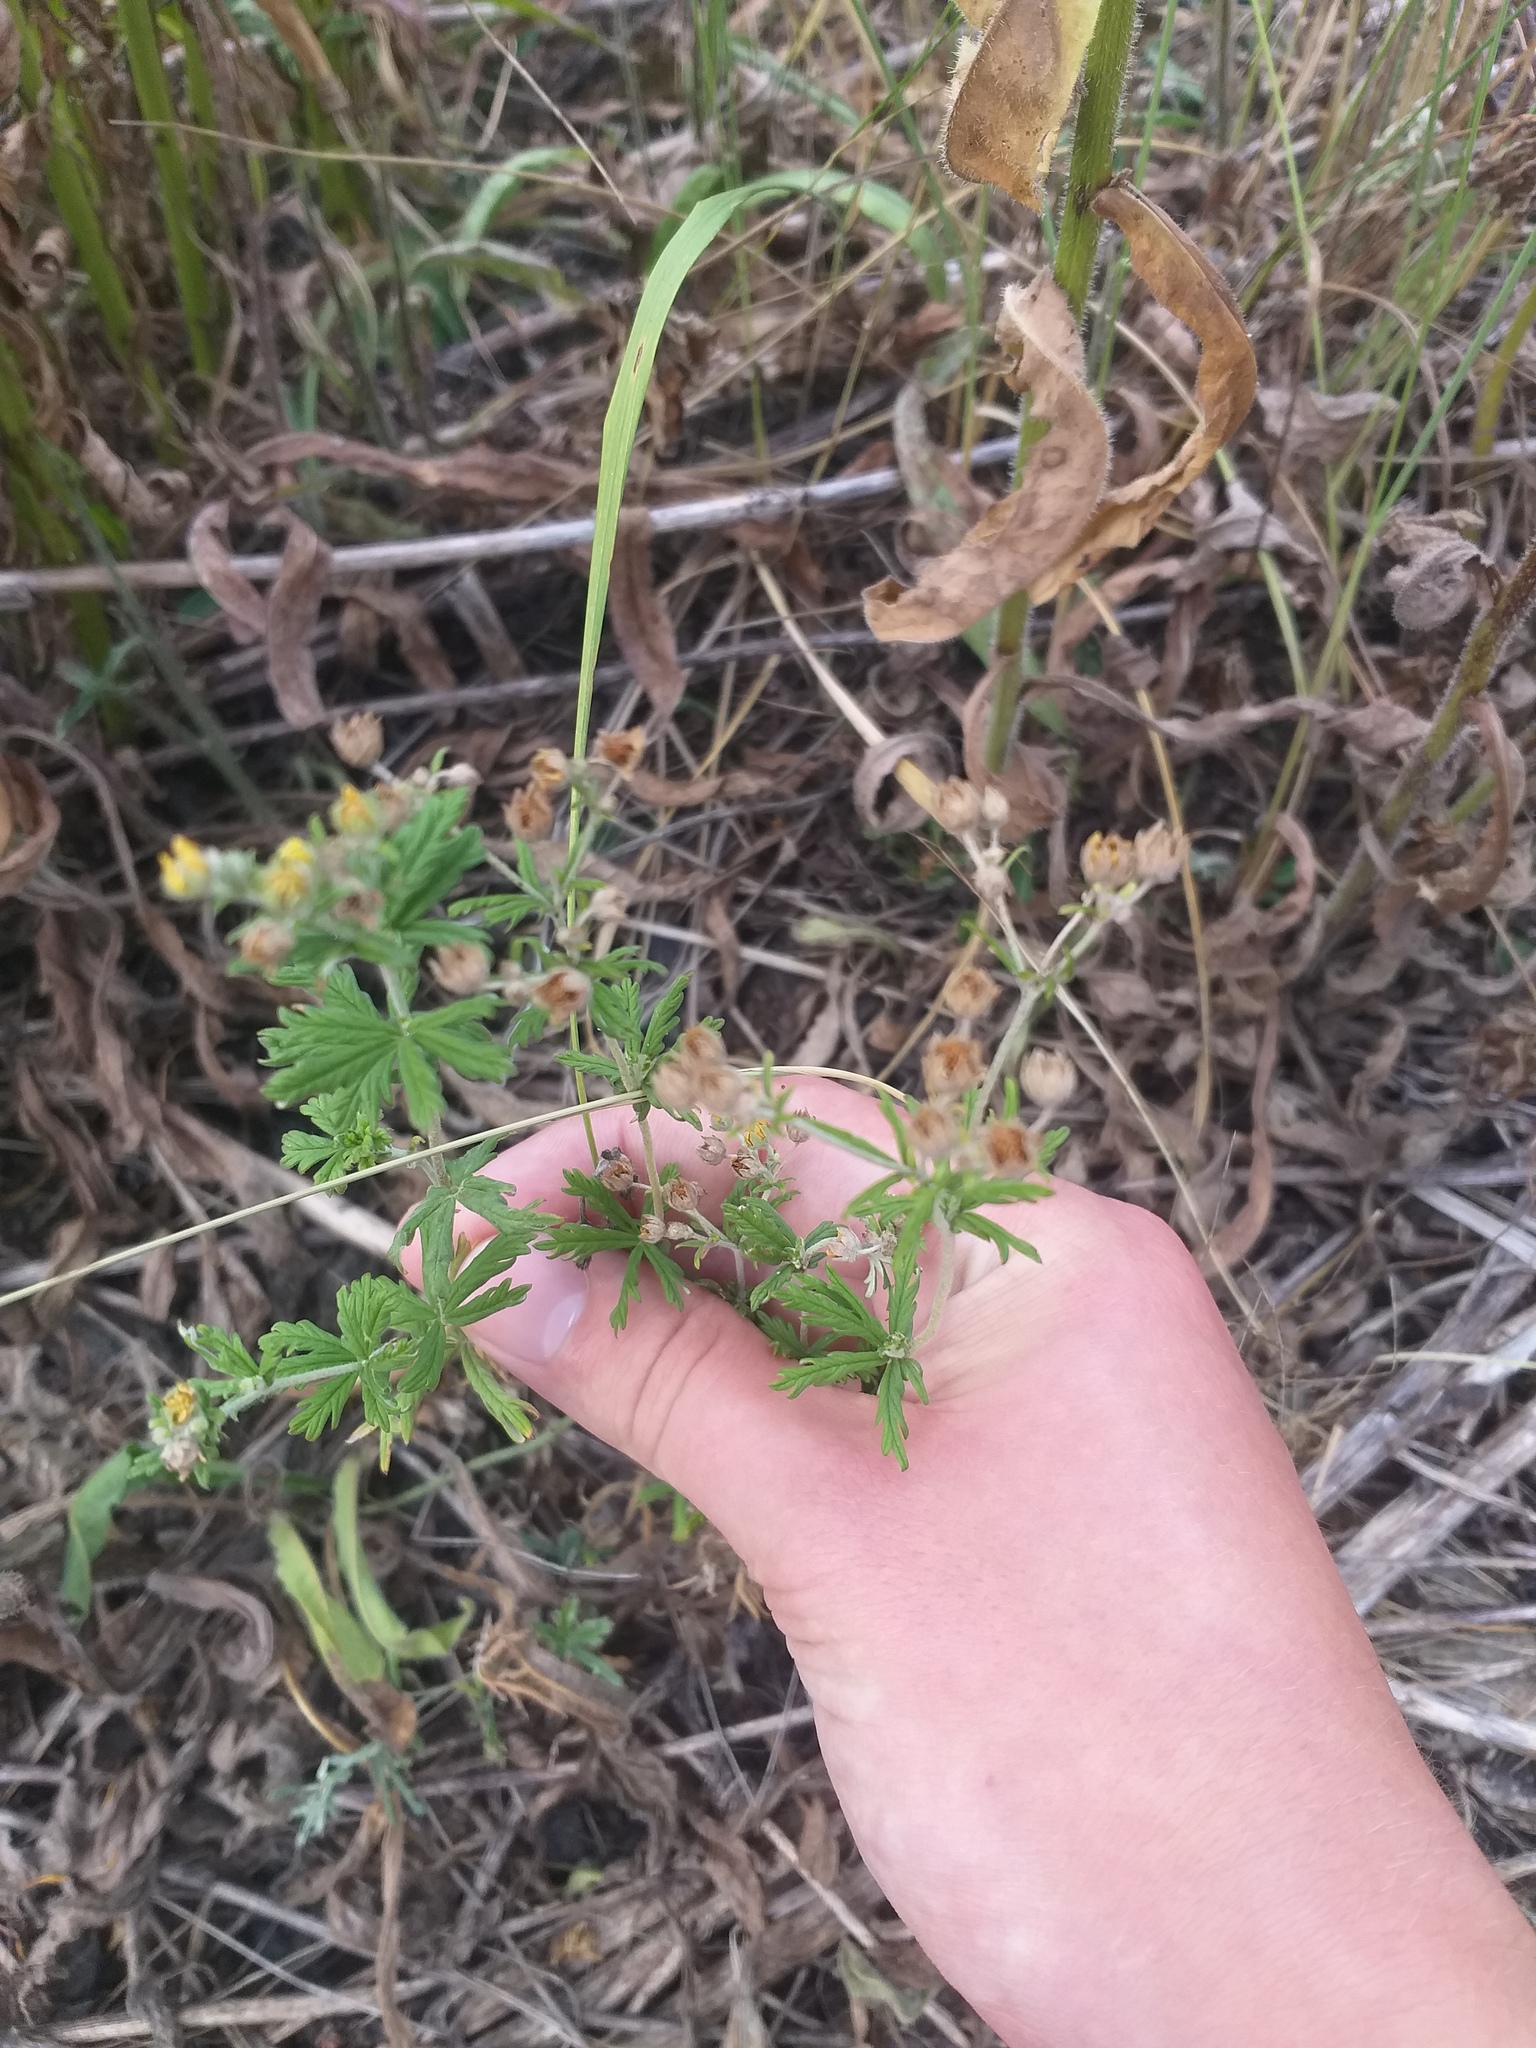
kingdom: Plantae
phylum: Tracheophyta
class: Magnoliopsida
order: Rosales
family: Rosaceae
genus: Potentilla
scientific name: Potentilla argentea
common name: Hoary cinquefoil
